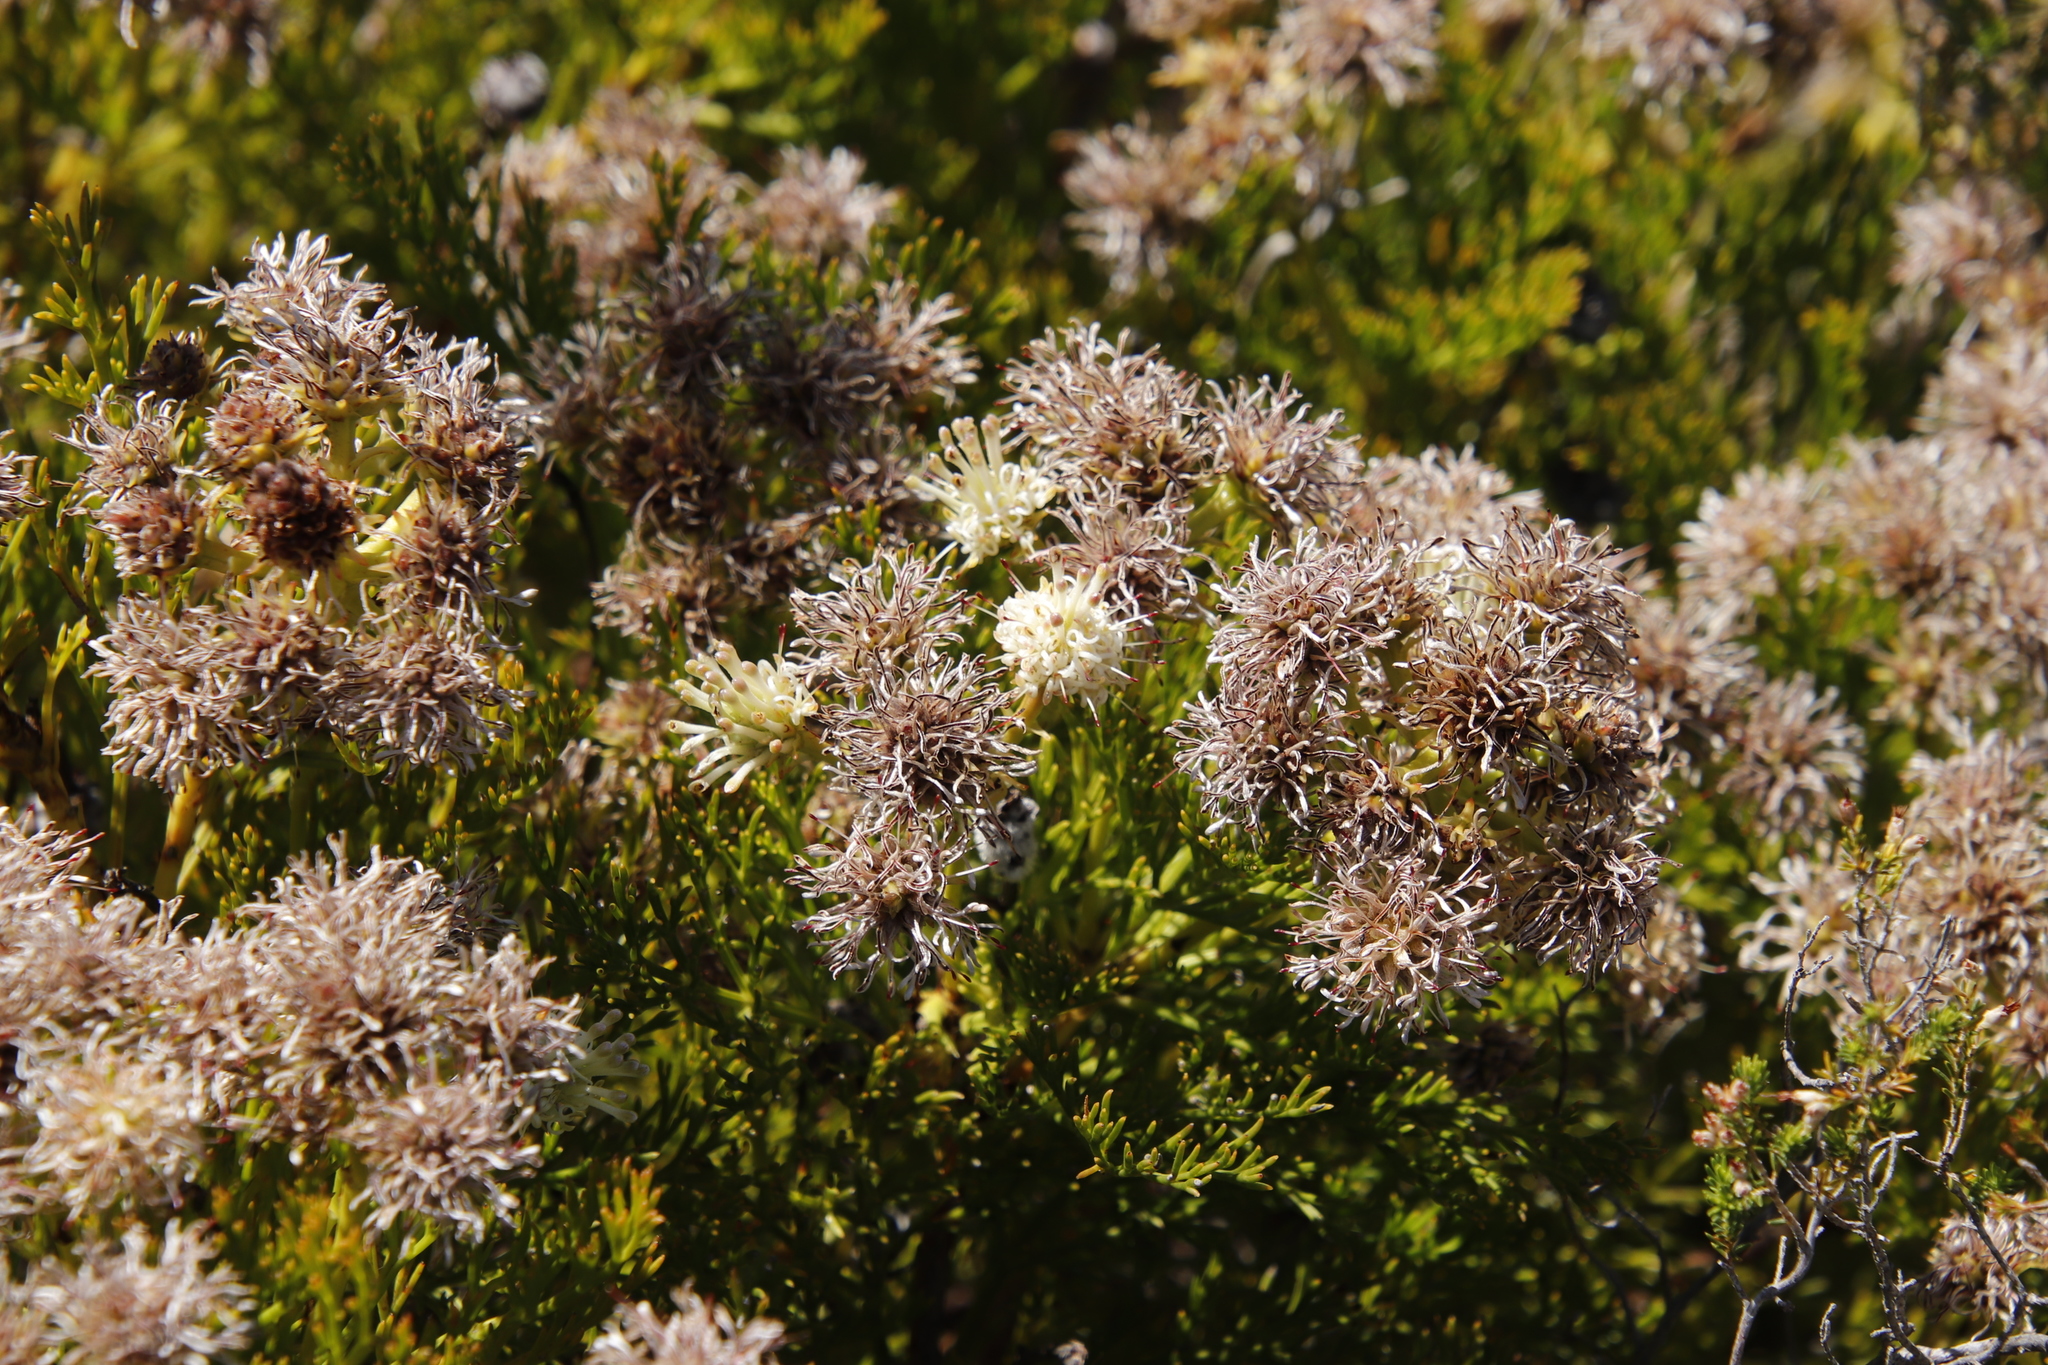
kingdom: Plantae
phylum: Tracheophyta
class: Magnoliopsida
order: Proteales
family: Proteaceae
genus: Serruria
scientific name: Serruria elongata
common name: Long-stalk spiderhead
